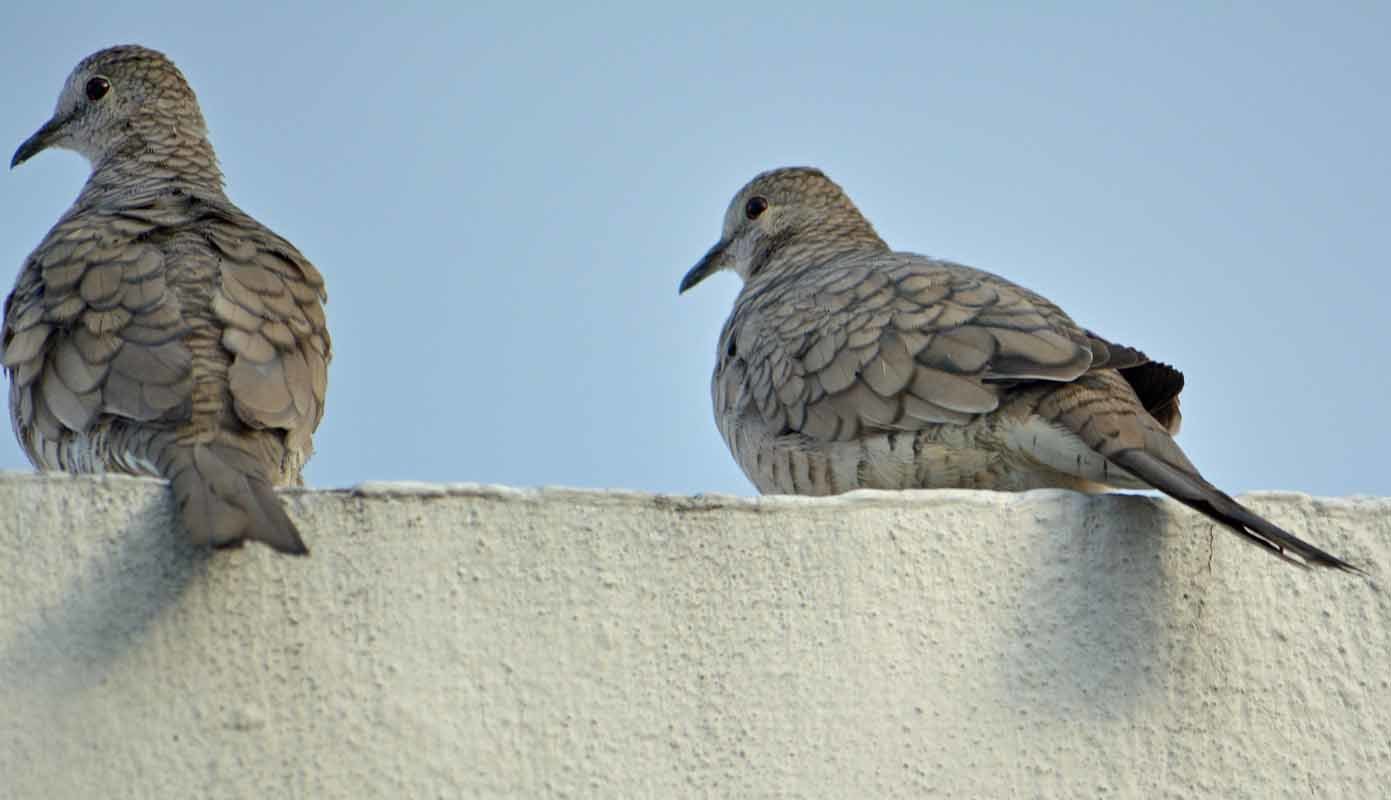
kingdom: Animalia
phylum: Chordata
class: Aves
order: Columbiformes
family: Columbidae
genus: Columbina
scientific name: Columbina inca
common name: Inca dove
